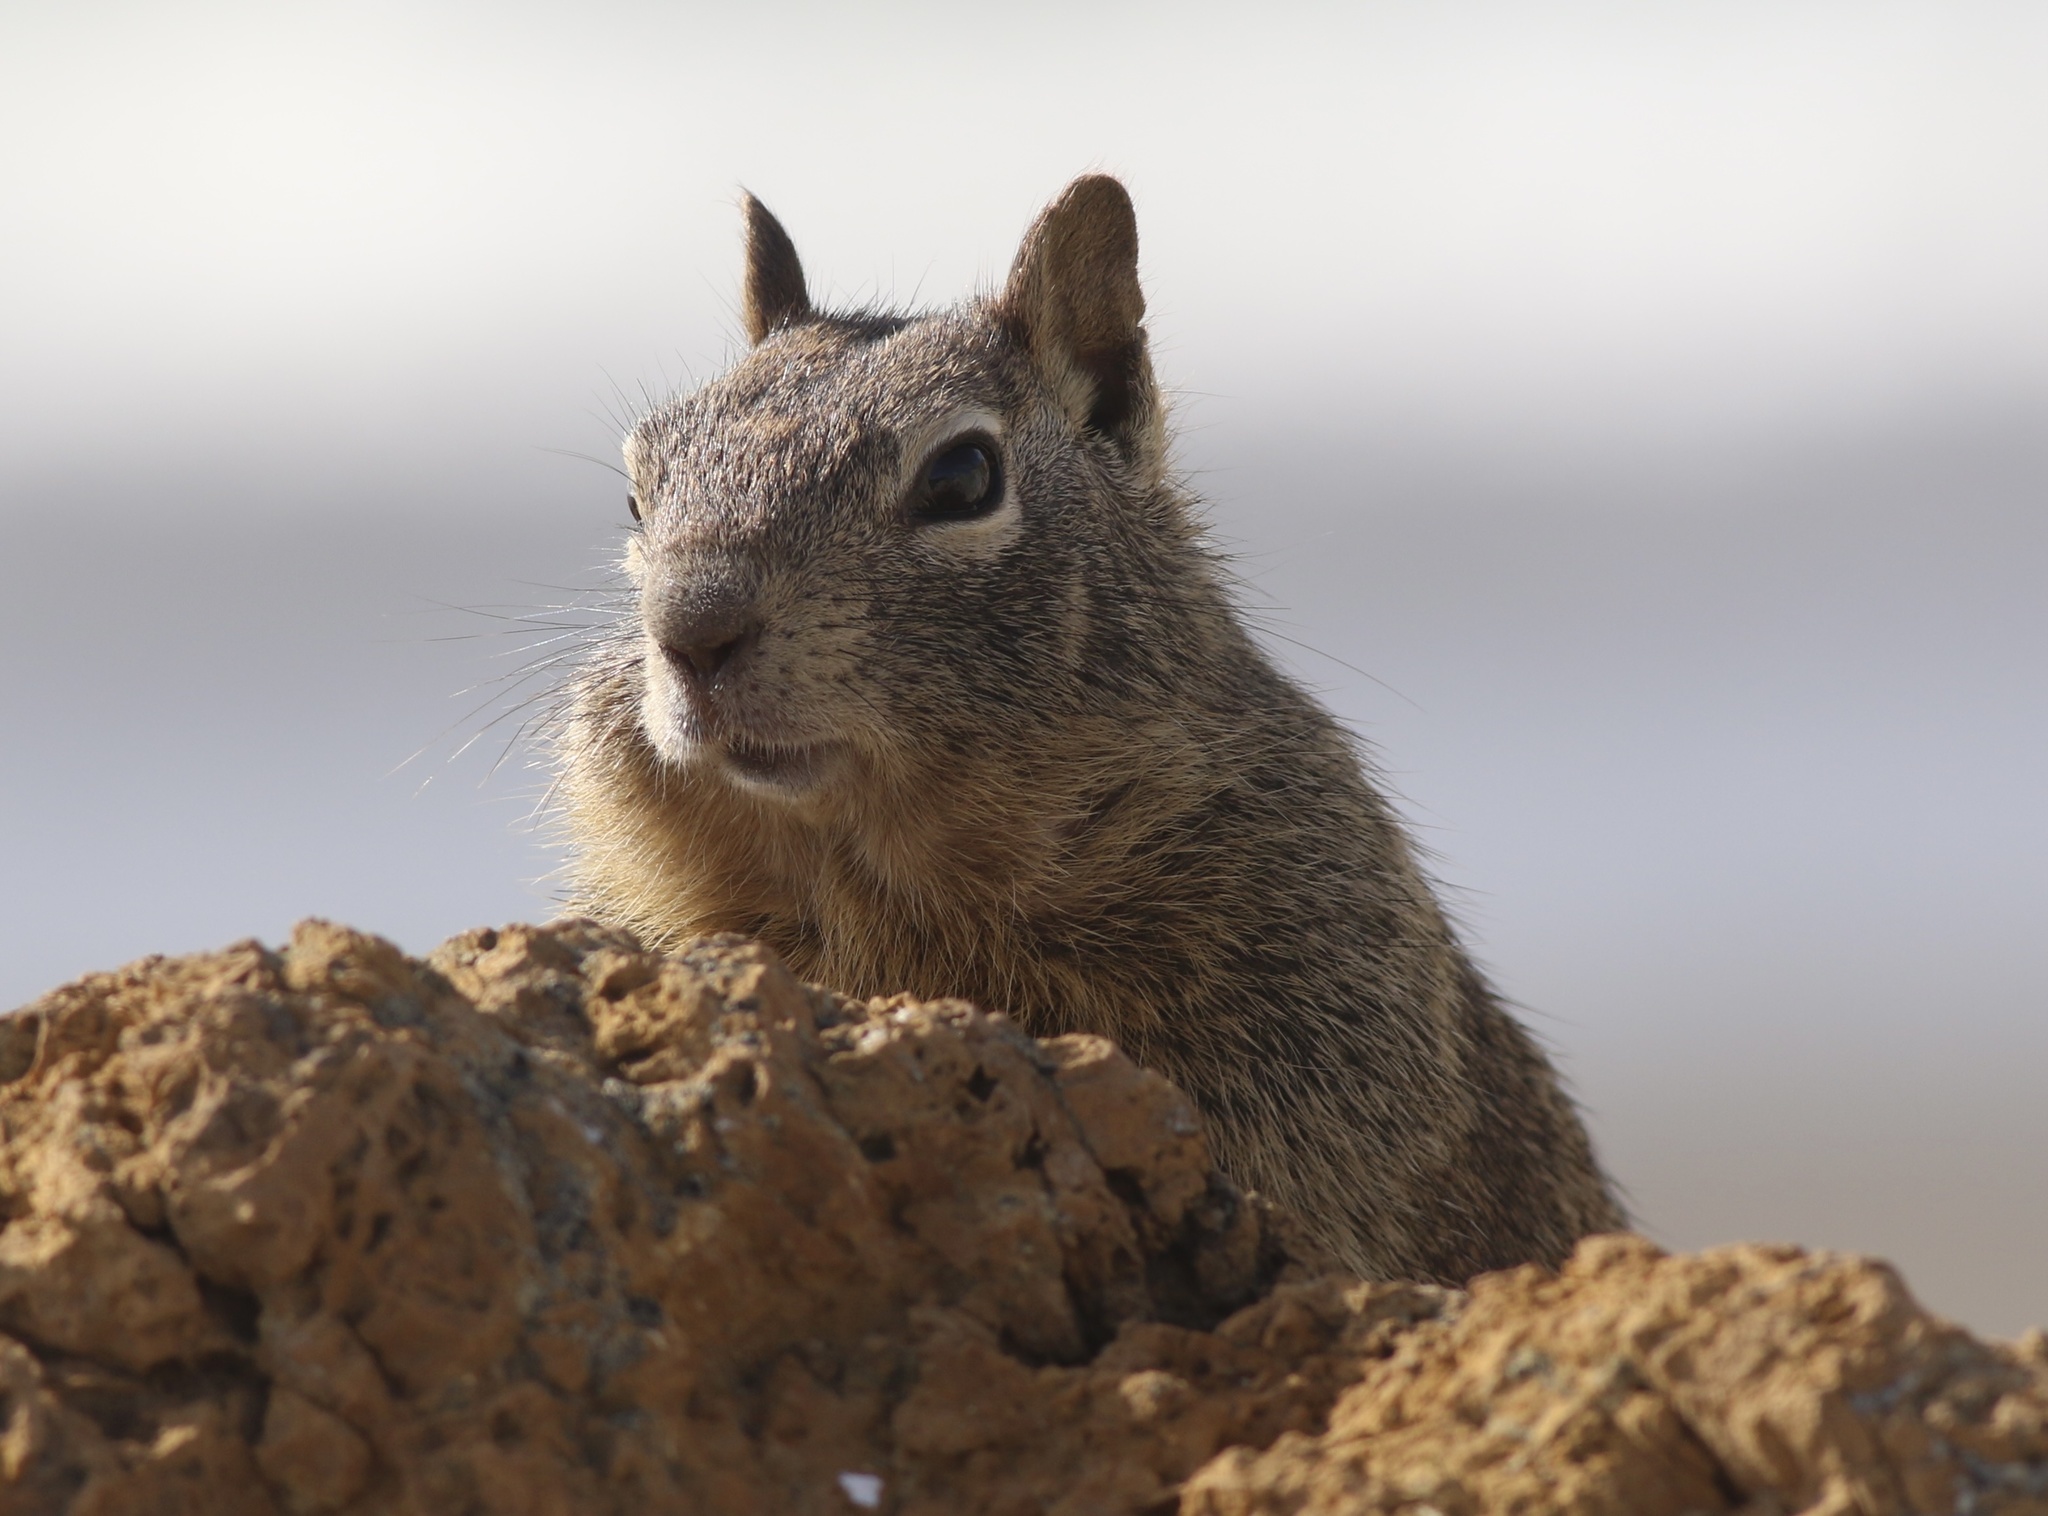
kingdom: Animalia
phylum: Chordata
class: Mammalia
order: Rodentia
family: Sciuridae
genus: Otospermophilus
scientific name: Otospermophilus beecheyi
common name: California ground squirrel
